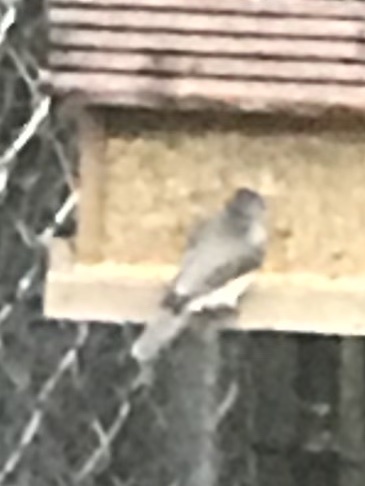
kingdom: Animalia
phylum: Chordata
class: Aves
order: Passeriformes
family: Paridae
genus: Baeolophus
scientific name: Baeolophus bicolor
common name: Tufted titmouse
